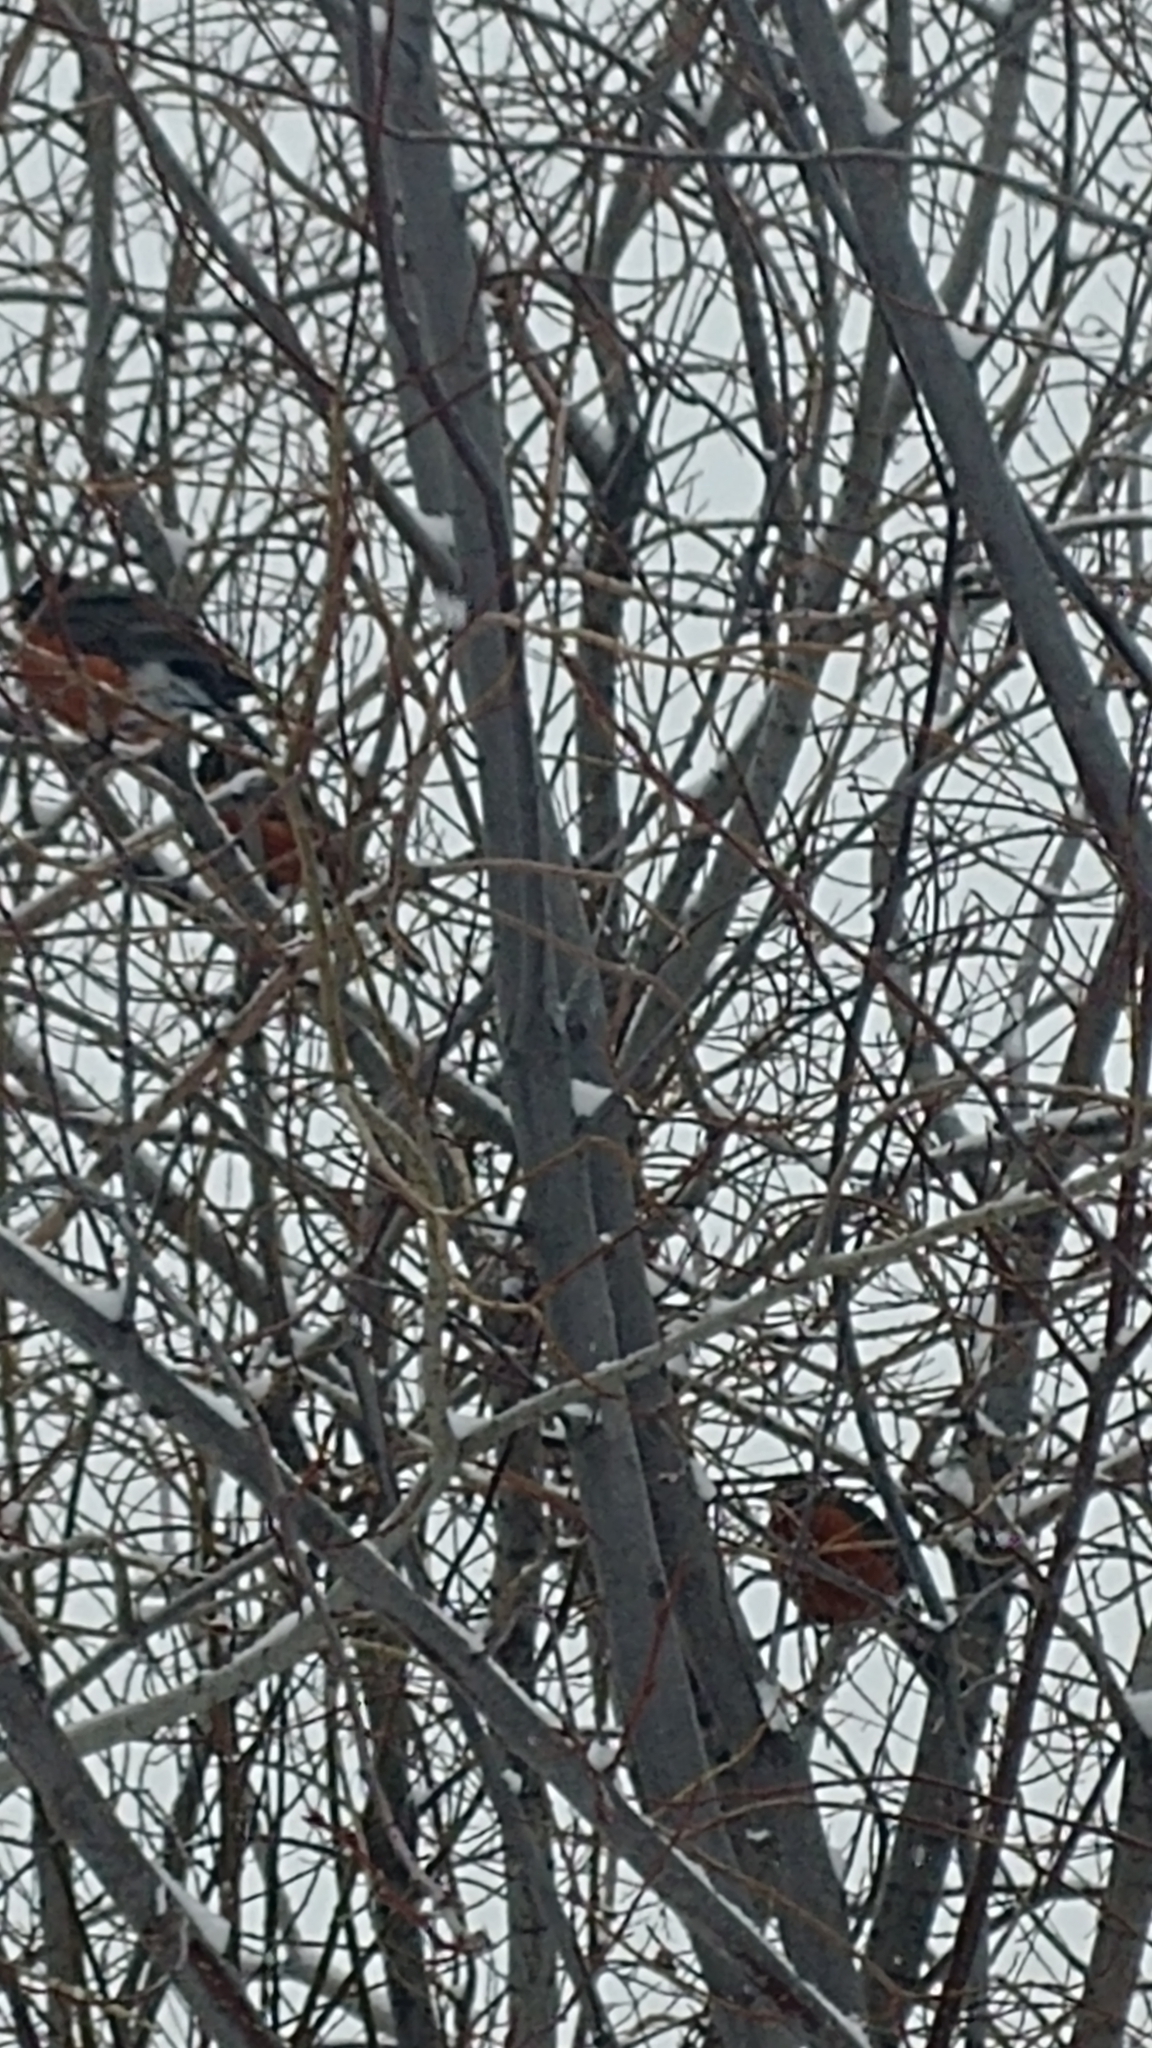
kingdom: Animalia
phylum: Chordata
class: Aves
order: Passeriformes
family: Turdidae
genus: Turdus
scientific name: Turdus migratorius
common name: American robin
